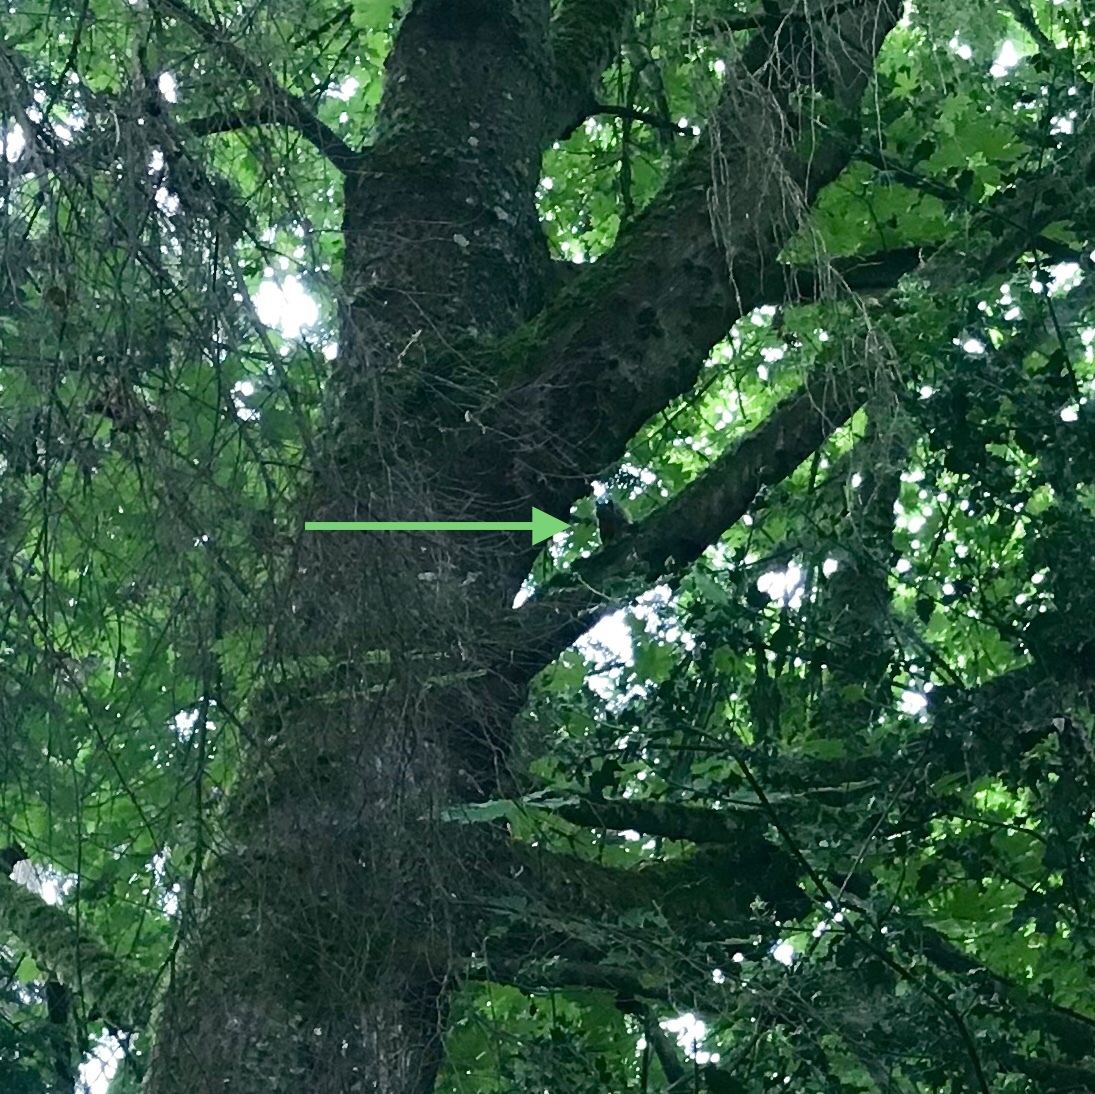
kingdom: Animalia
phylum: Chordata
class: Mammalia
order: Rodentia
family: Sciuridae
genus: Tamias
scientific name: Tamias townsendii
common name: Townsend's chipmunk
